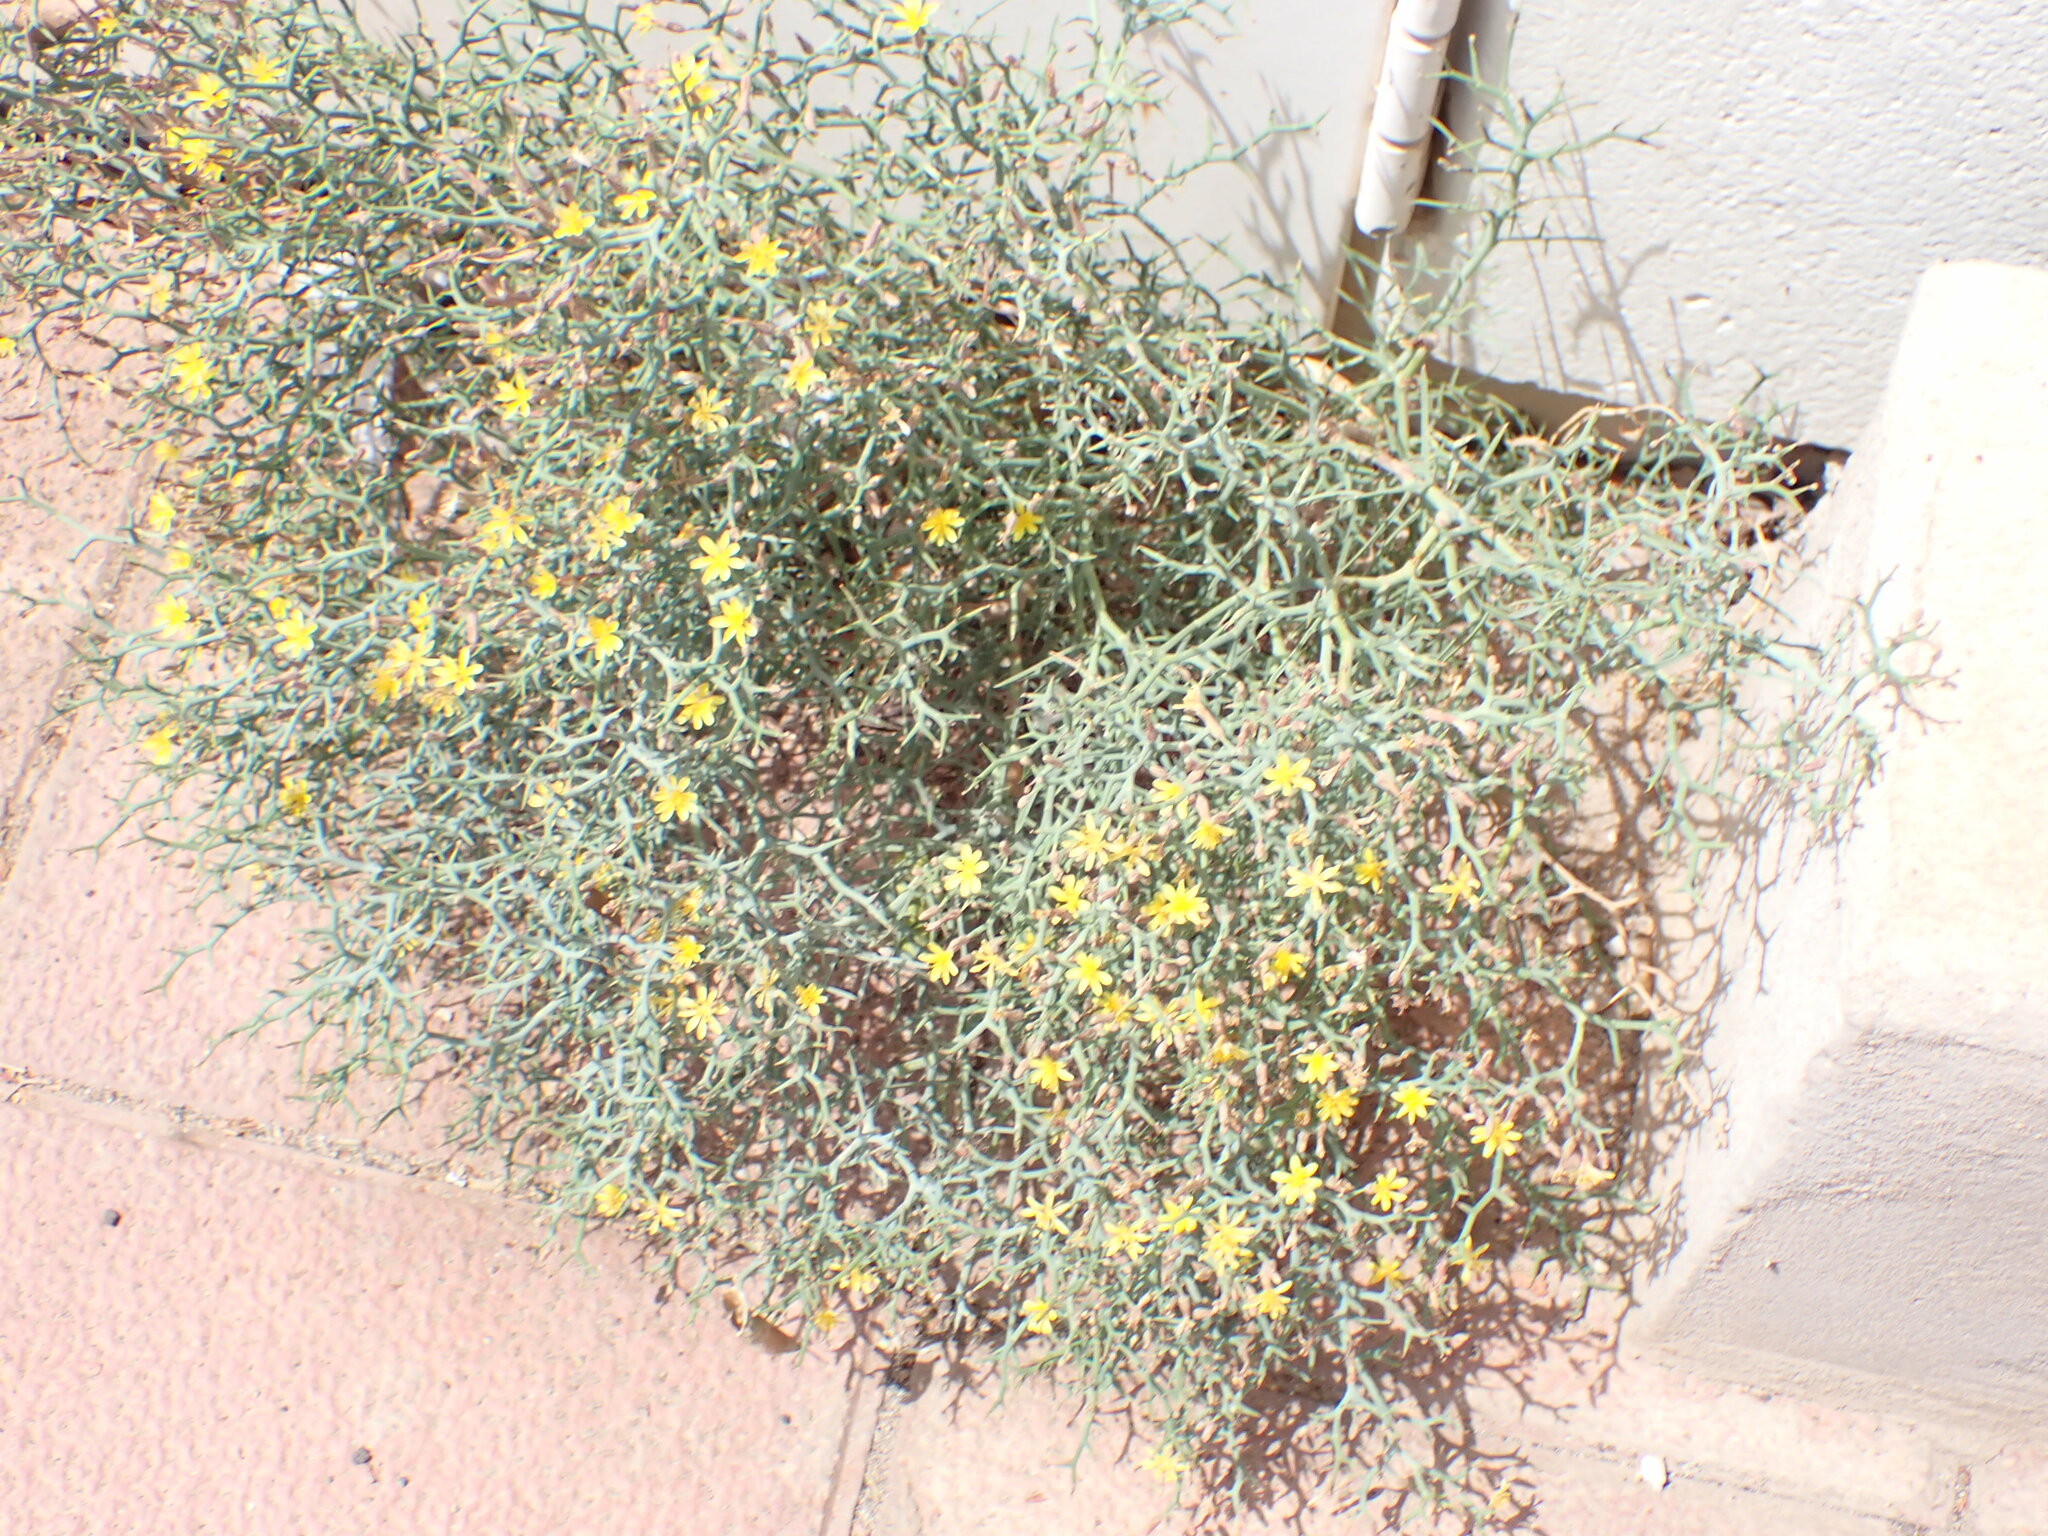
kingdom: Plantae
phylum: Tracheophyta
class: Magnoliopsida
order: Asterales
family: Asteraceae
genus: Launaea
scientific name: Launaea arborescens
